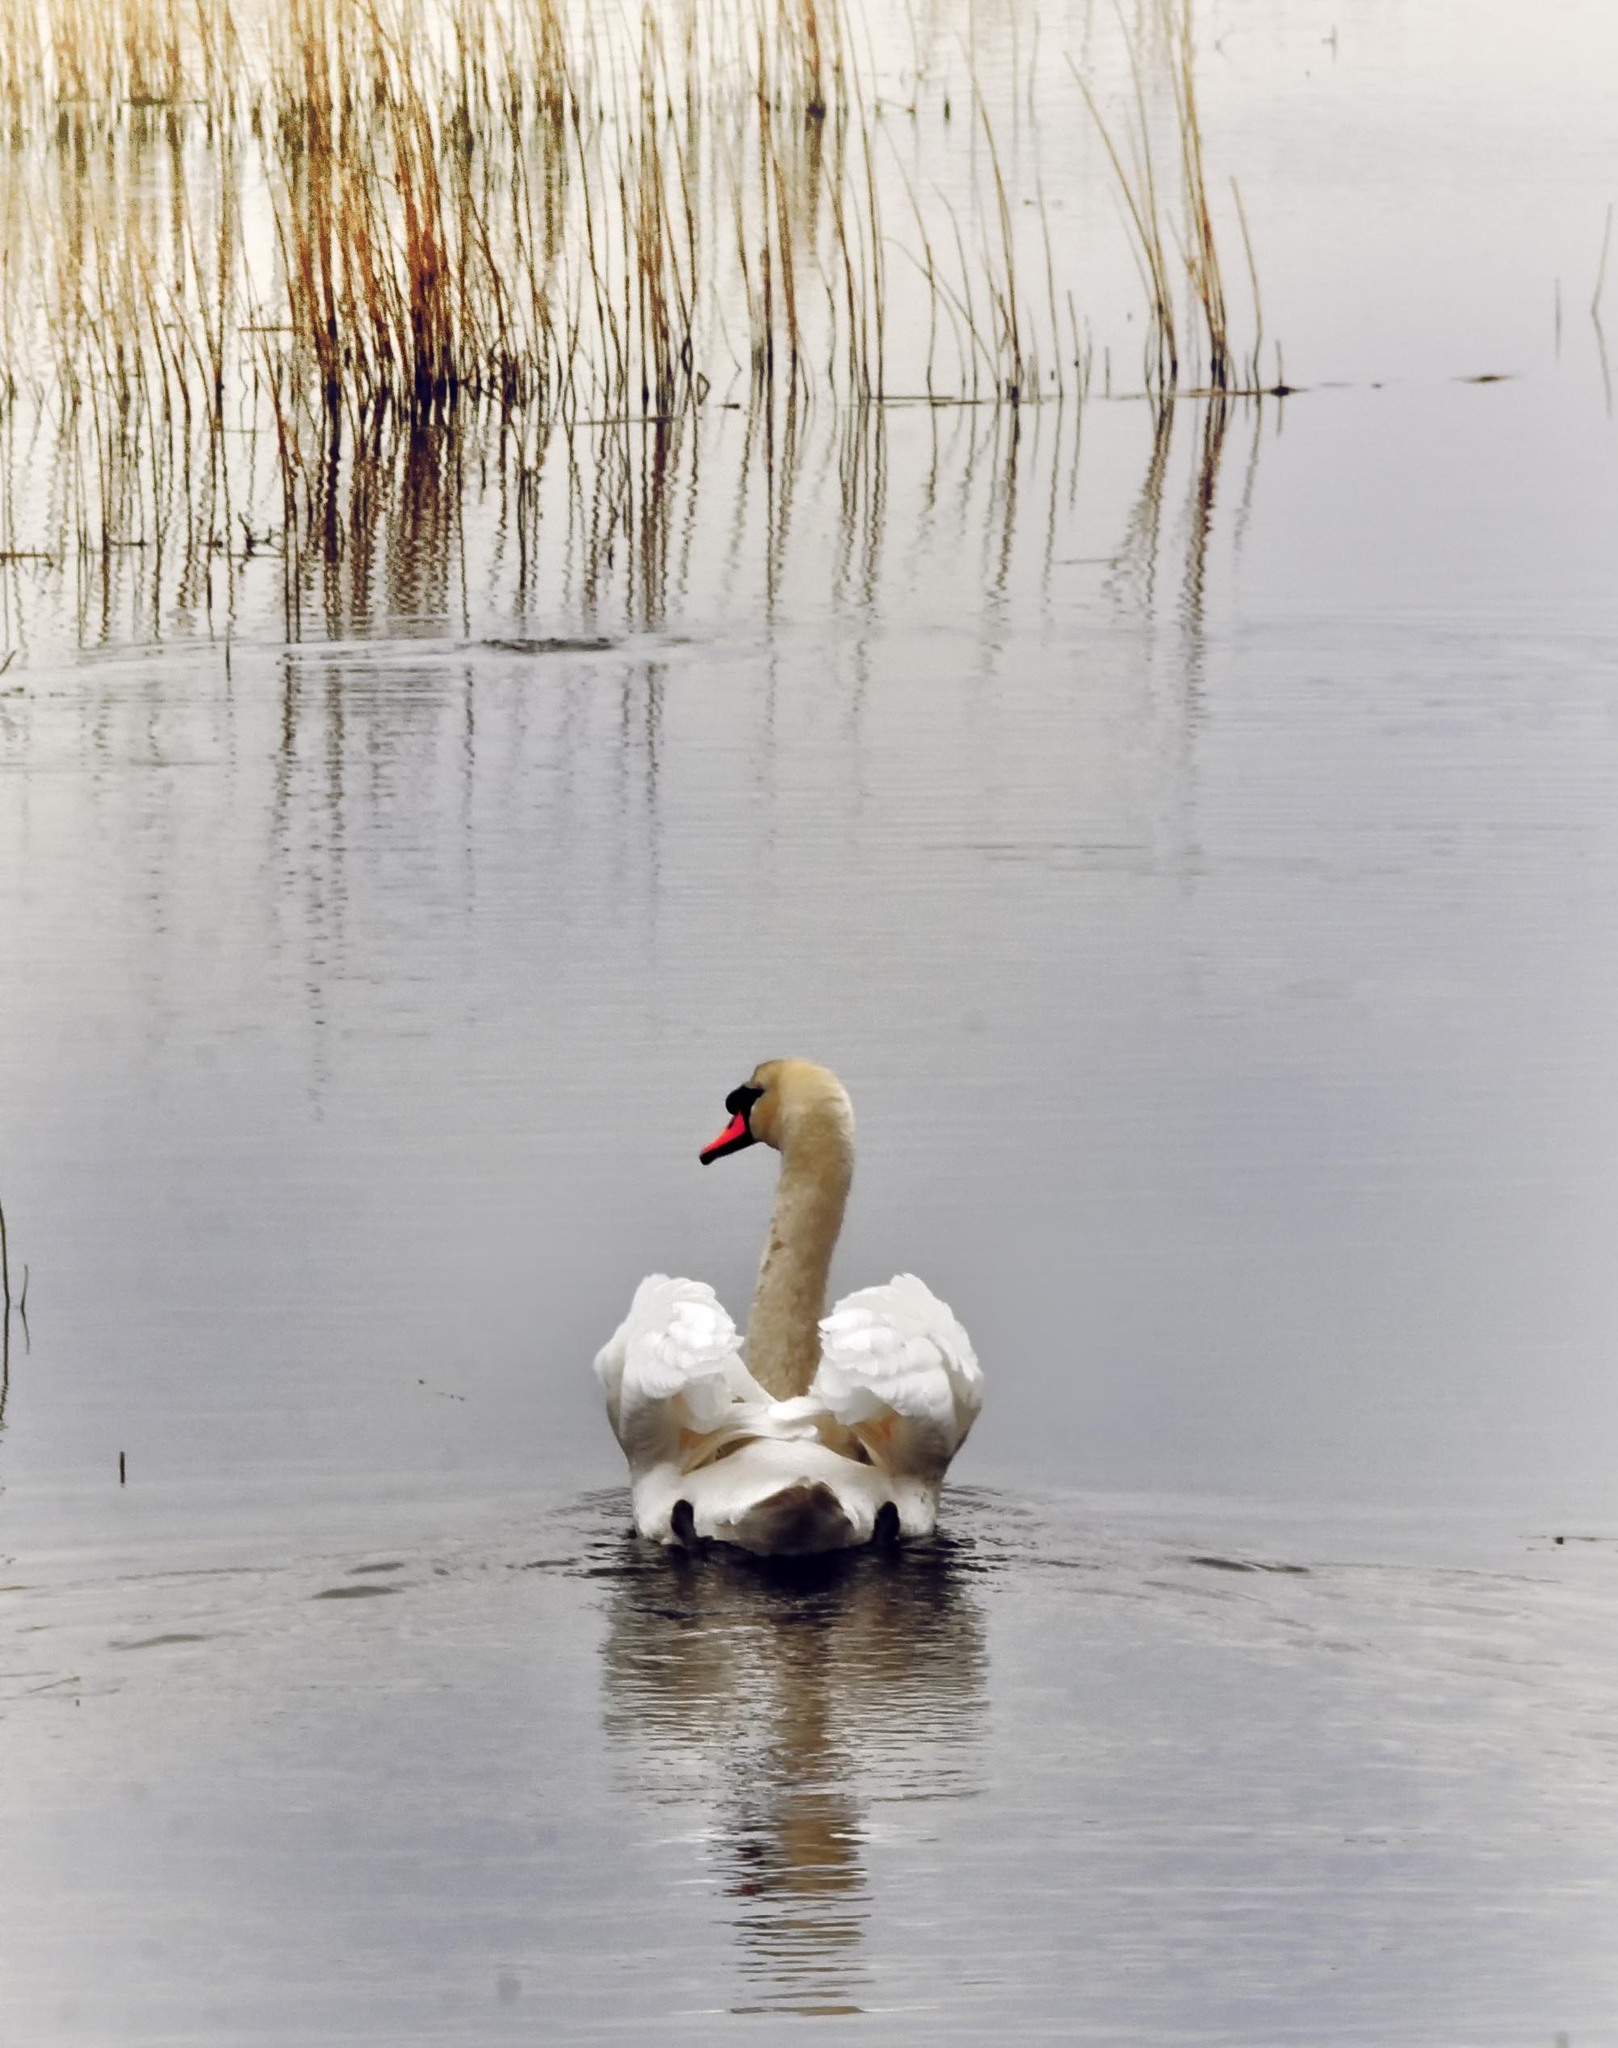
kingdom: Animalia
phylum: Chordata
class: Aves
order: Anseriformes
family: Anatidae
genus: Cygnus
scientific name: Cygnus olor
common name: Mute swan
